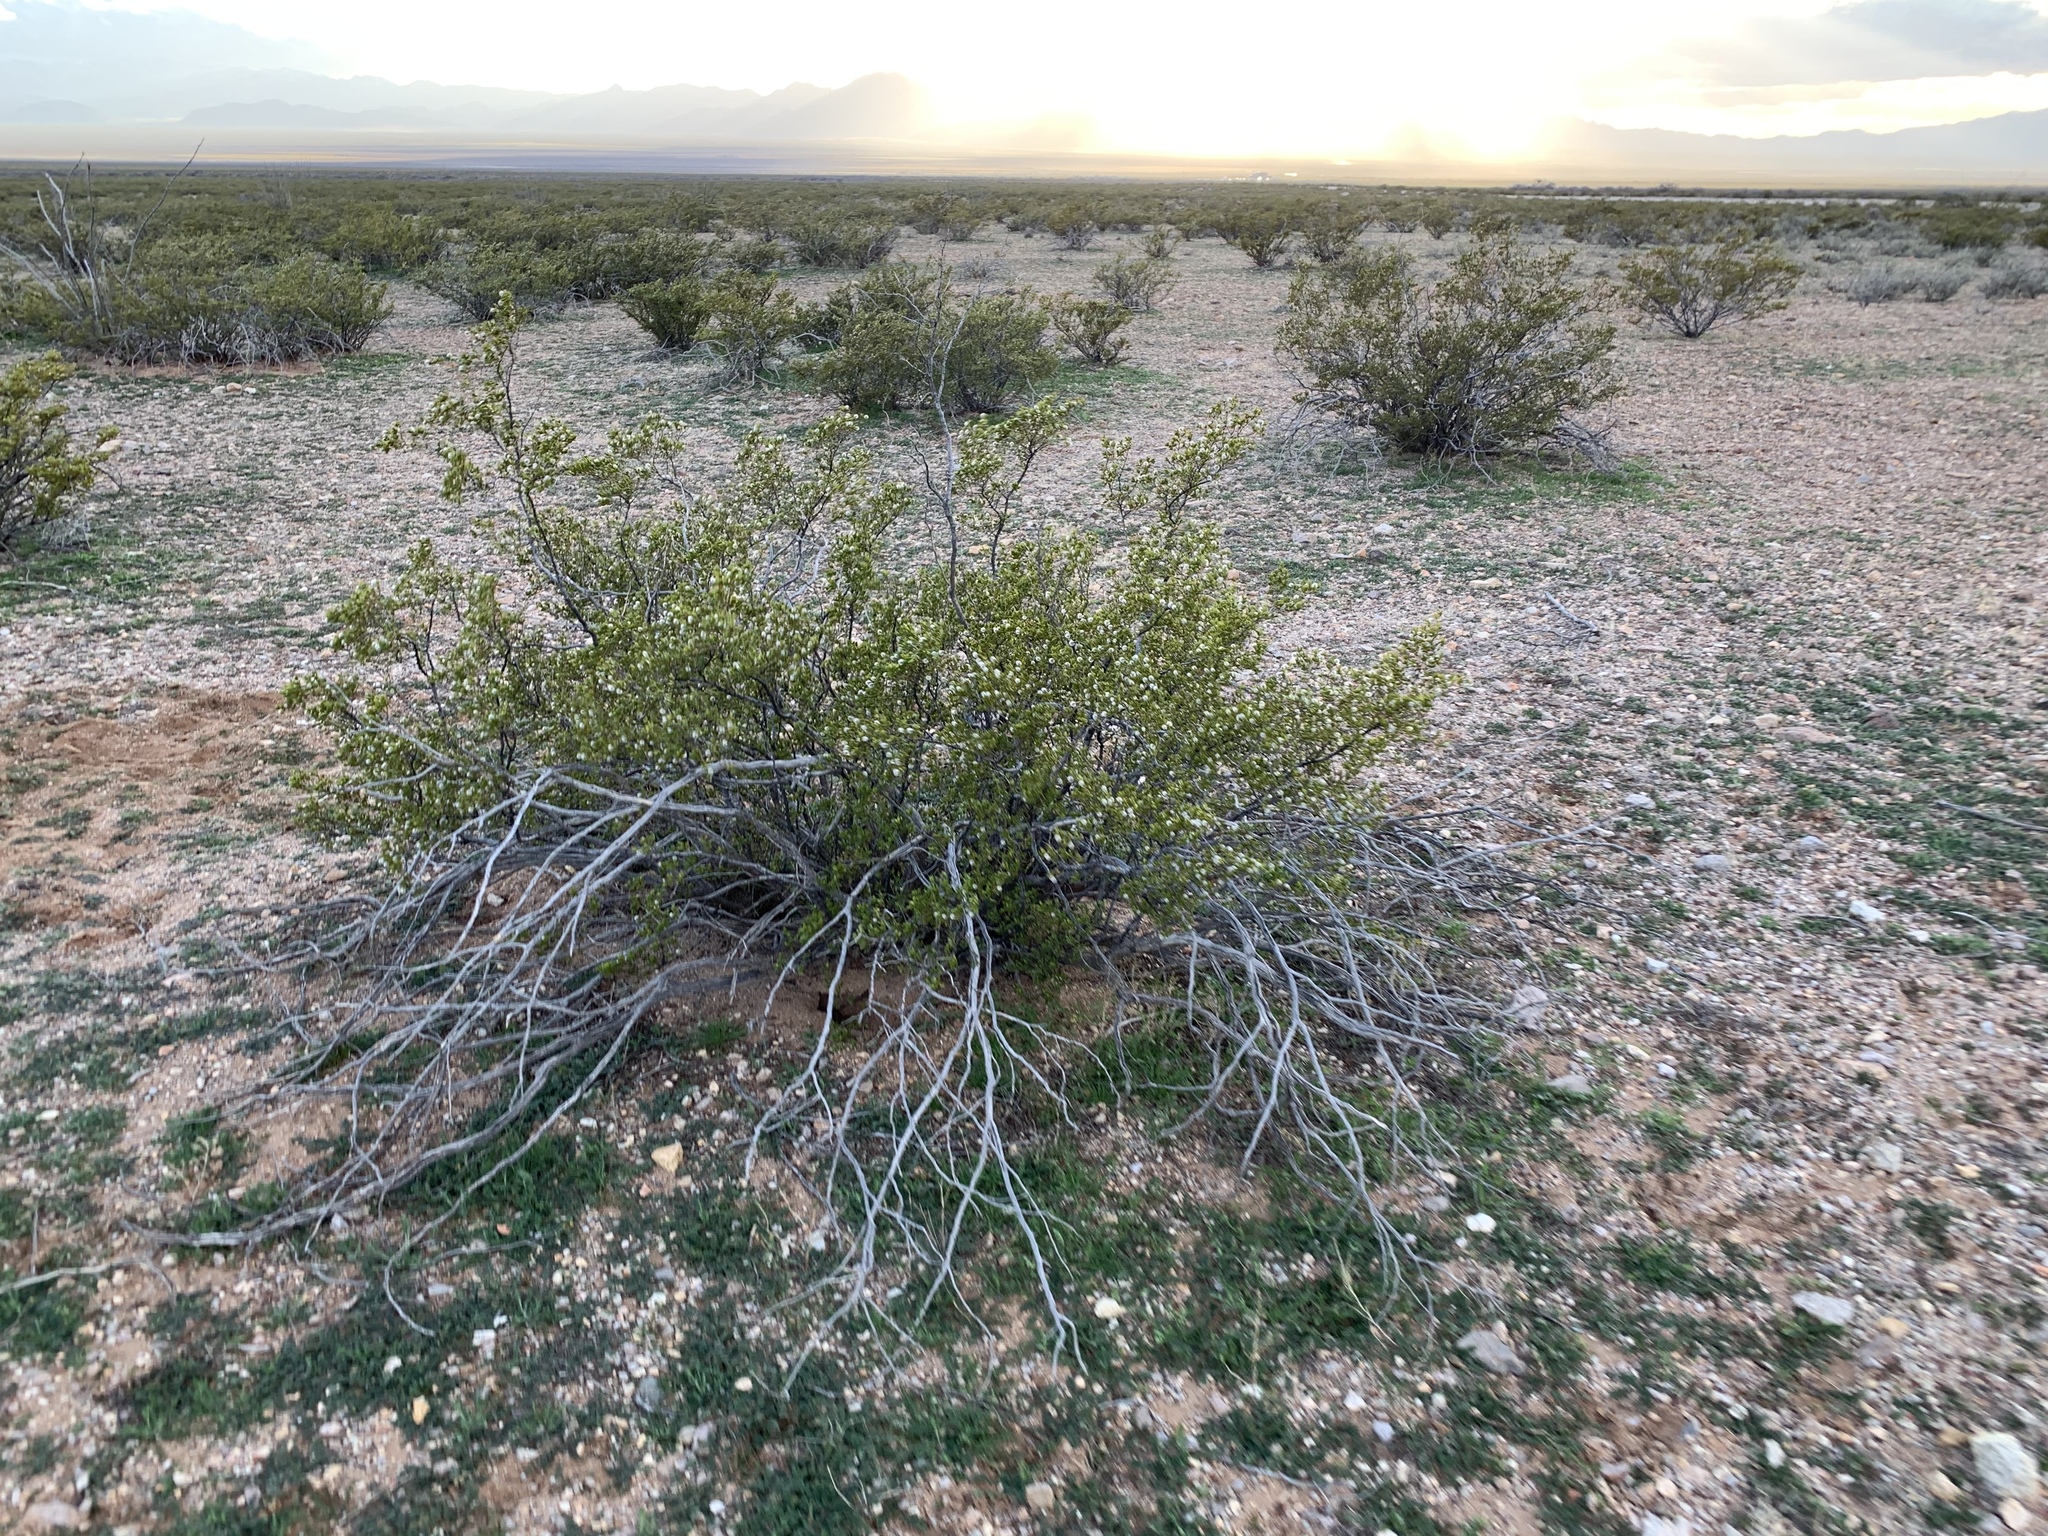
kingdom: Plantae
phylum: Tracheophyta
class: Magnoliopsida
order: Zygophyllales
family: Zygophyllaceae
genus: Larrea
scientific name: Larrea tridentata
